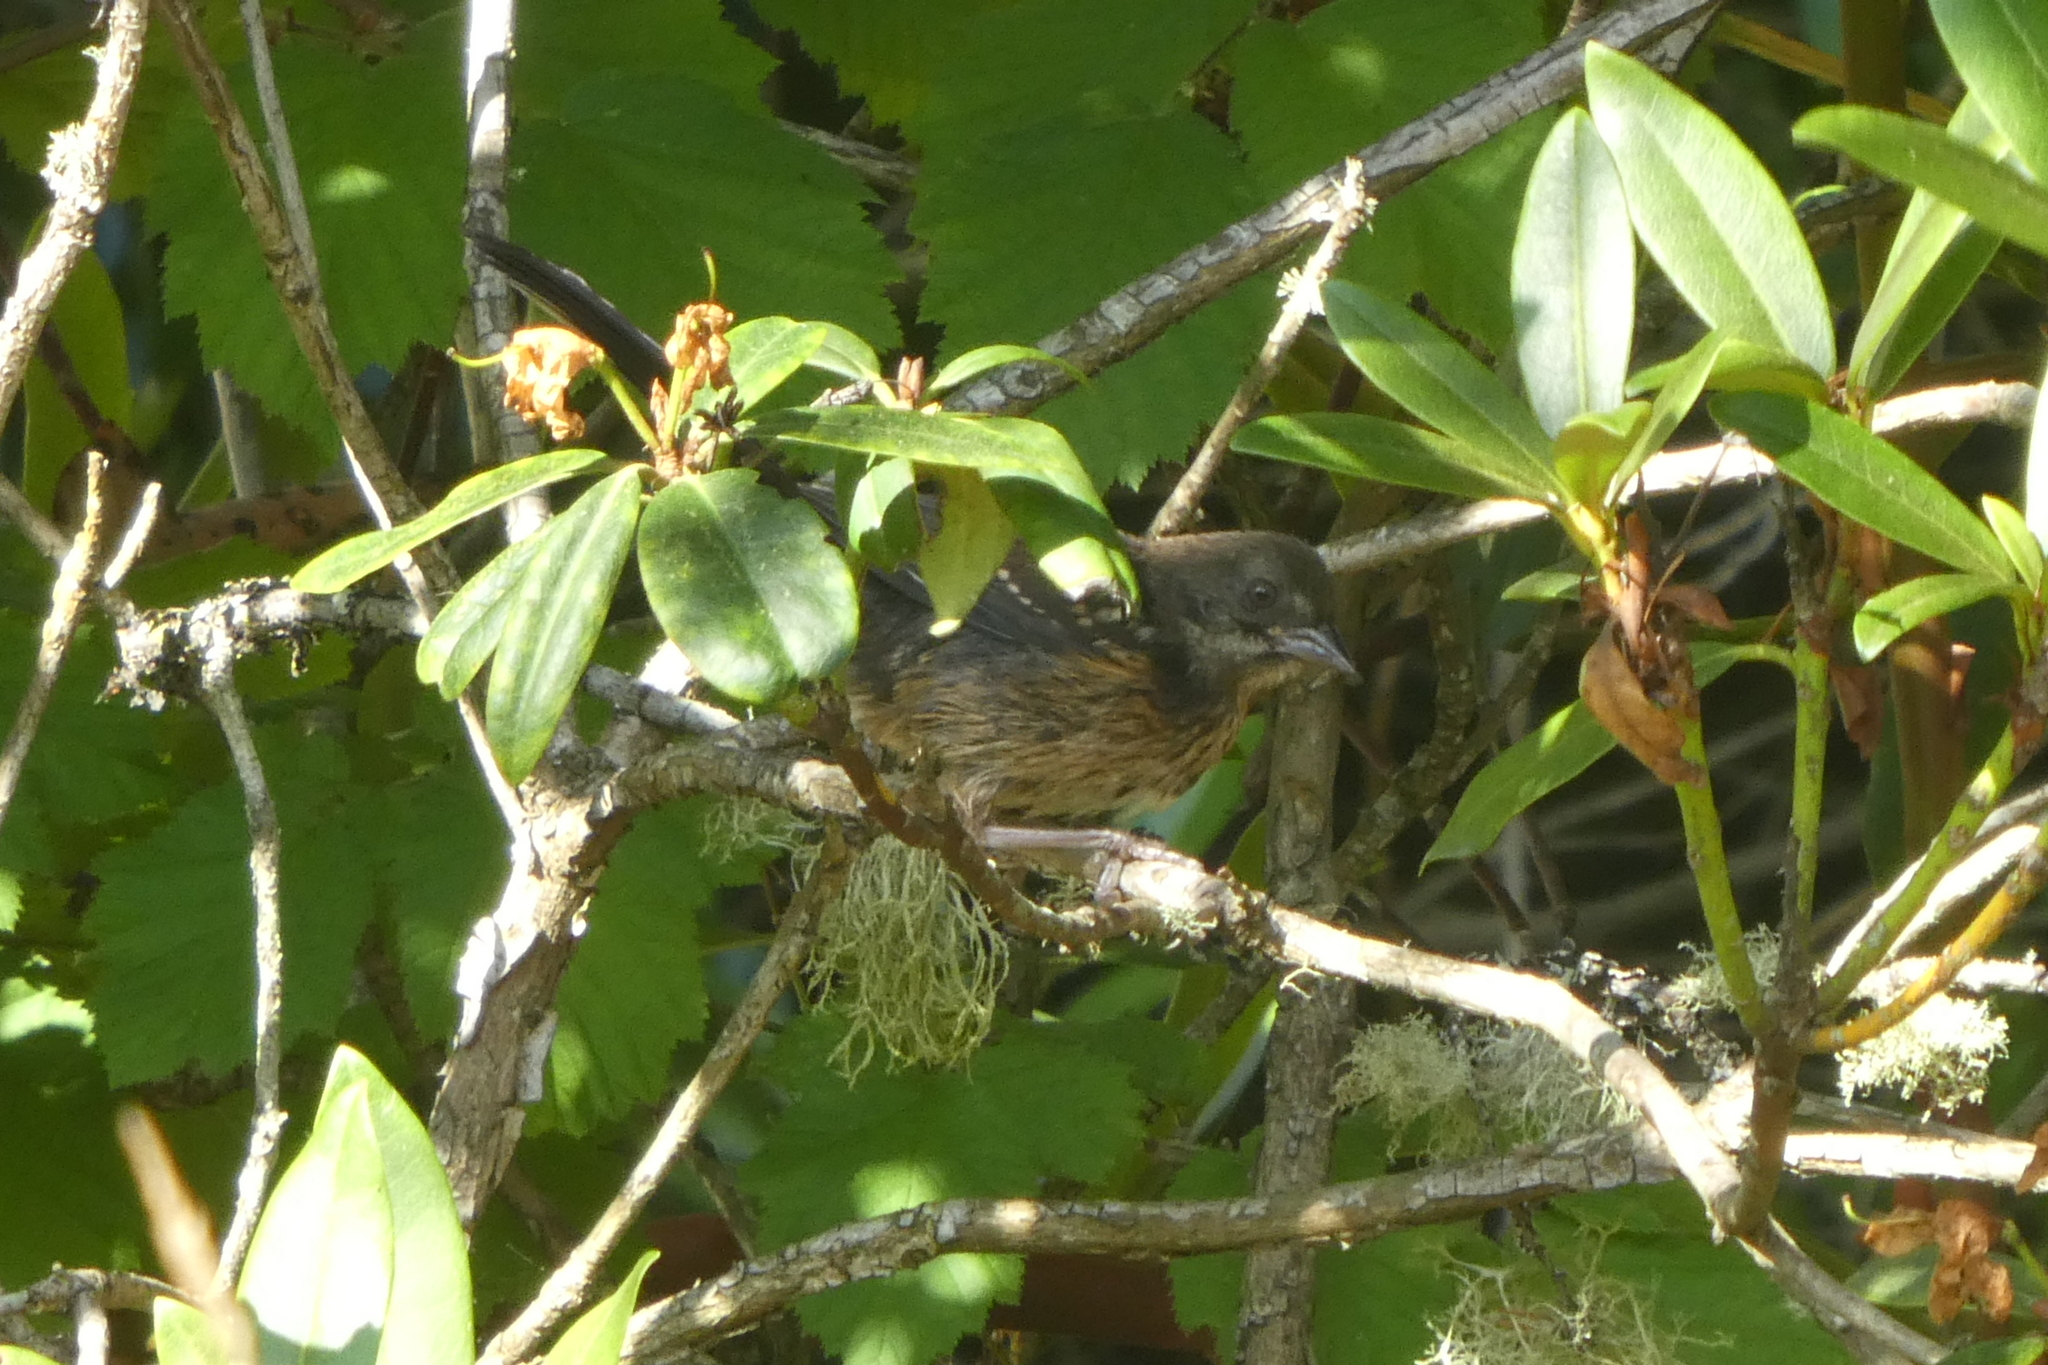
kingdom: Animalia
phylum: Chordata
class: Aves
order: Passeriformes
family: Passerellidae
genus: Pipilo
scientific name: Pipilo maculatus
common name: Spotted towhee
